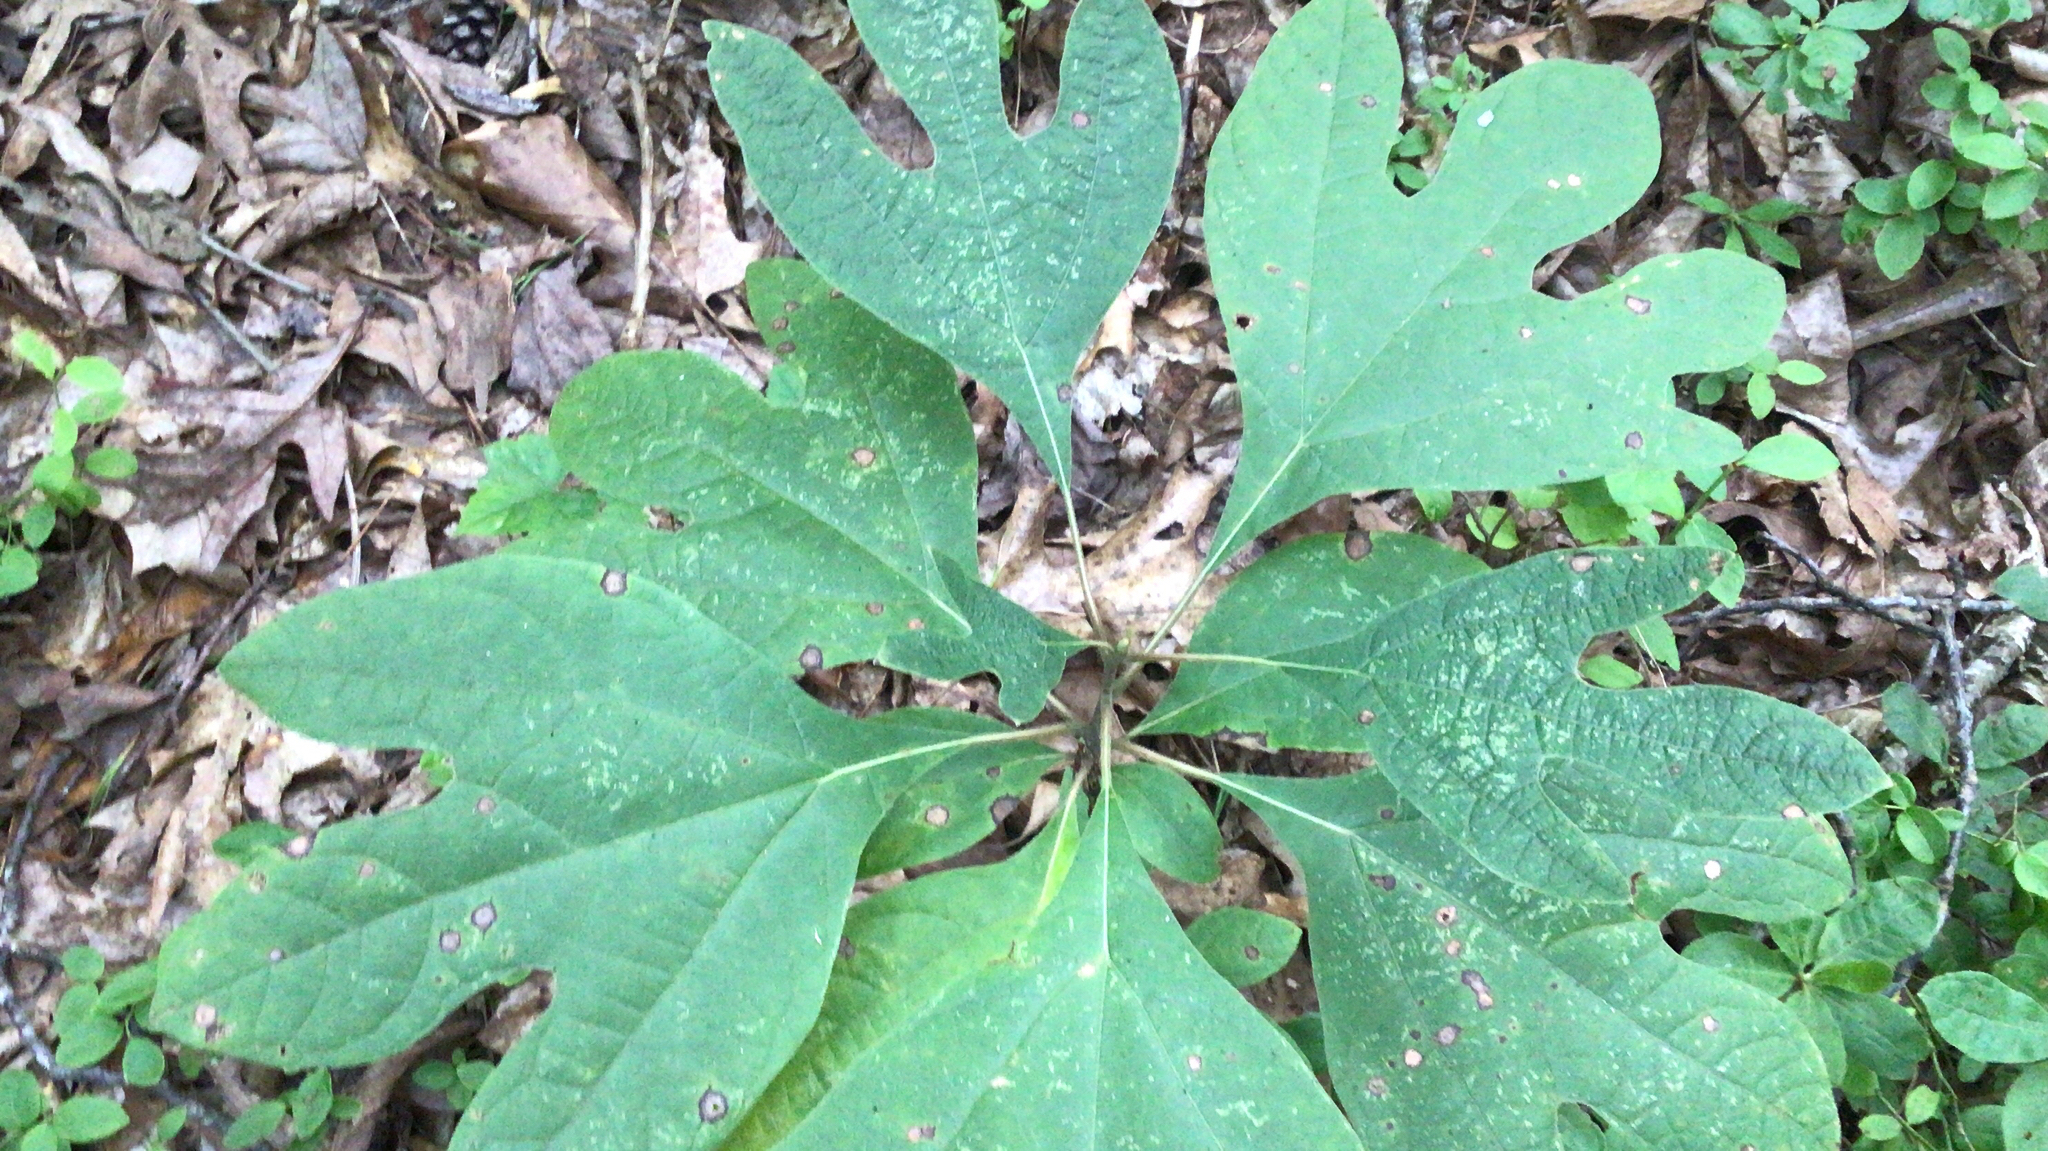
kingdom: Plantae
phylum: Tracheophyta
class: Magnoliopsida
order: Laurales
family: Lauraceae
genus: Sassafras
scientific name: Sassafras albidum
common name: Sassafras
